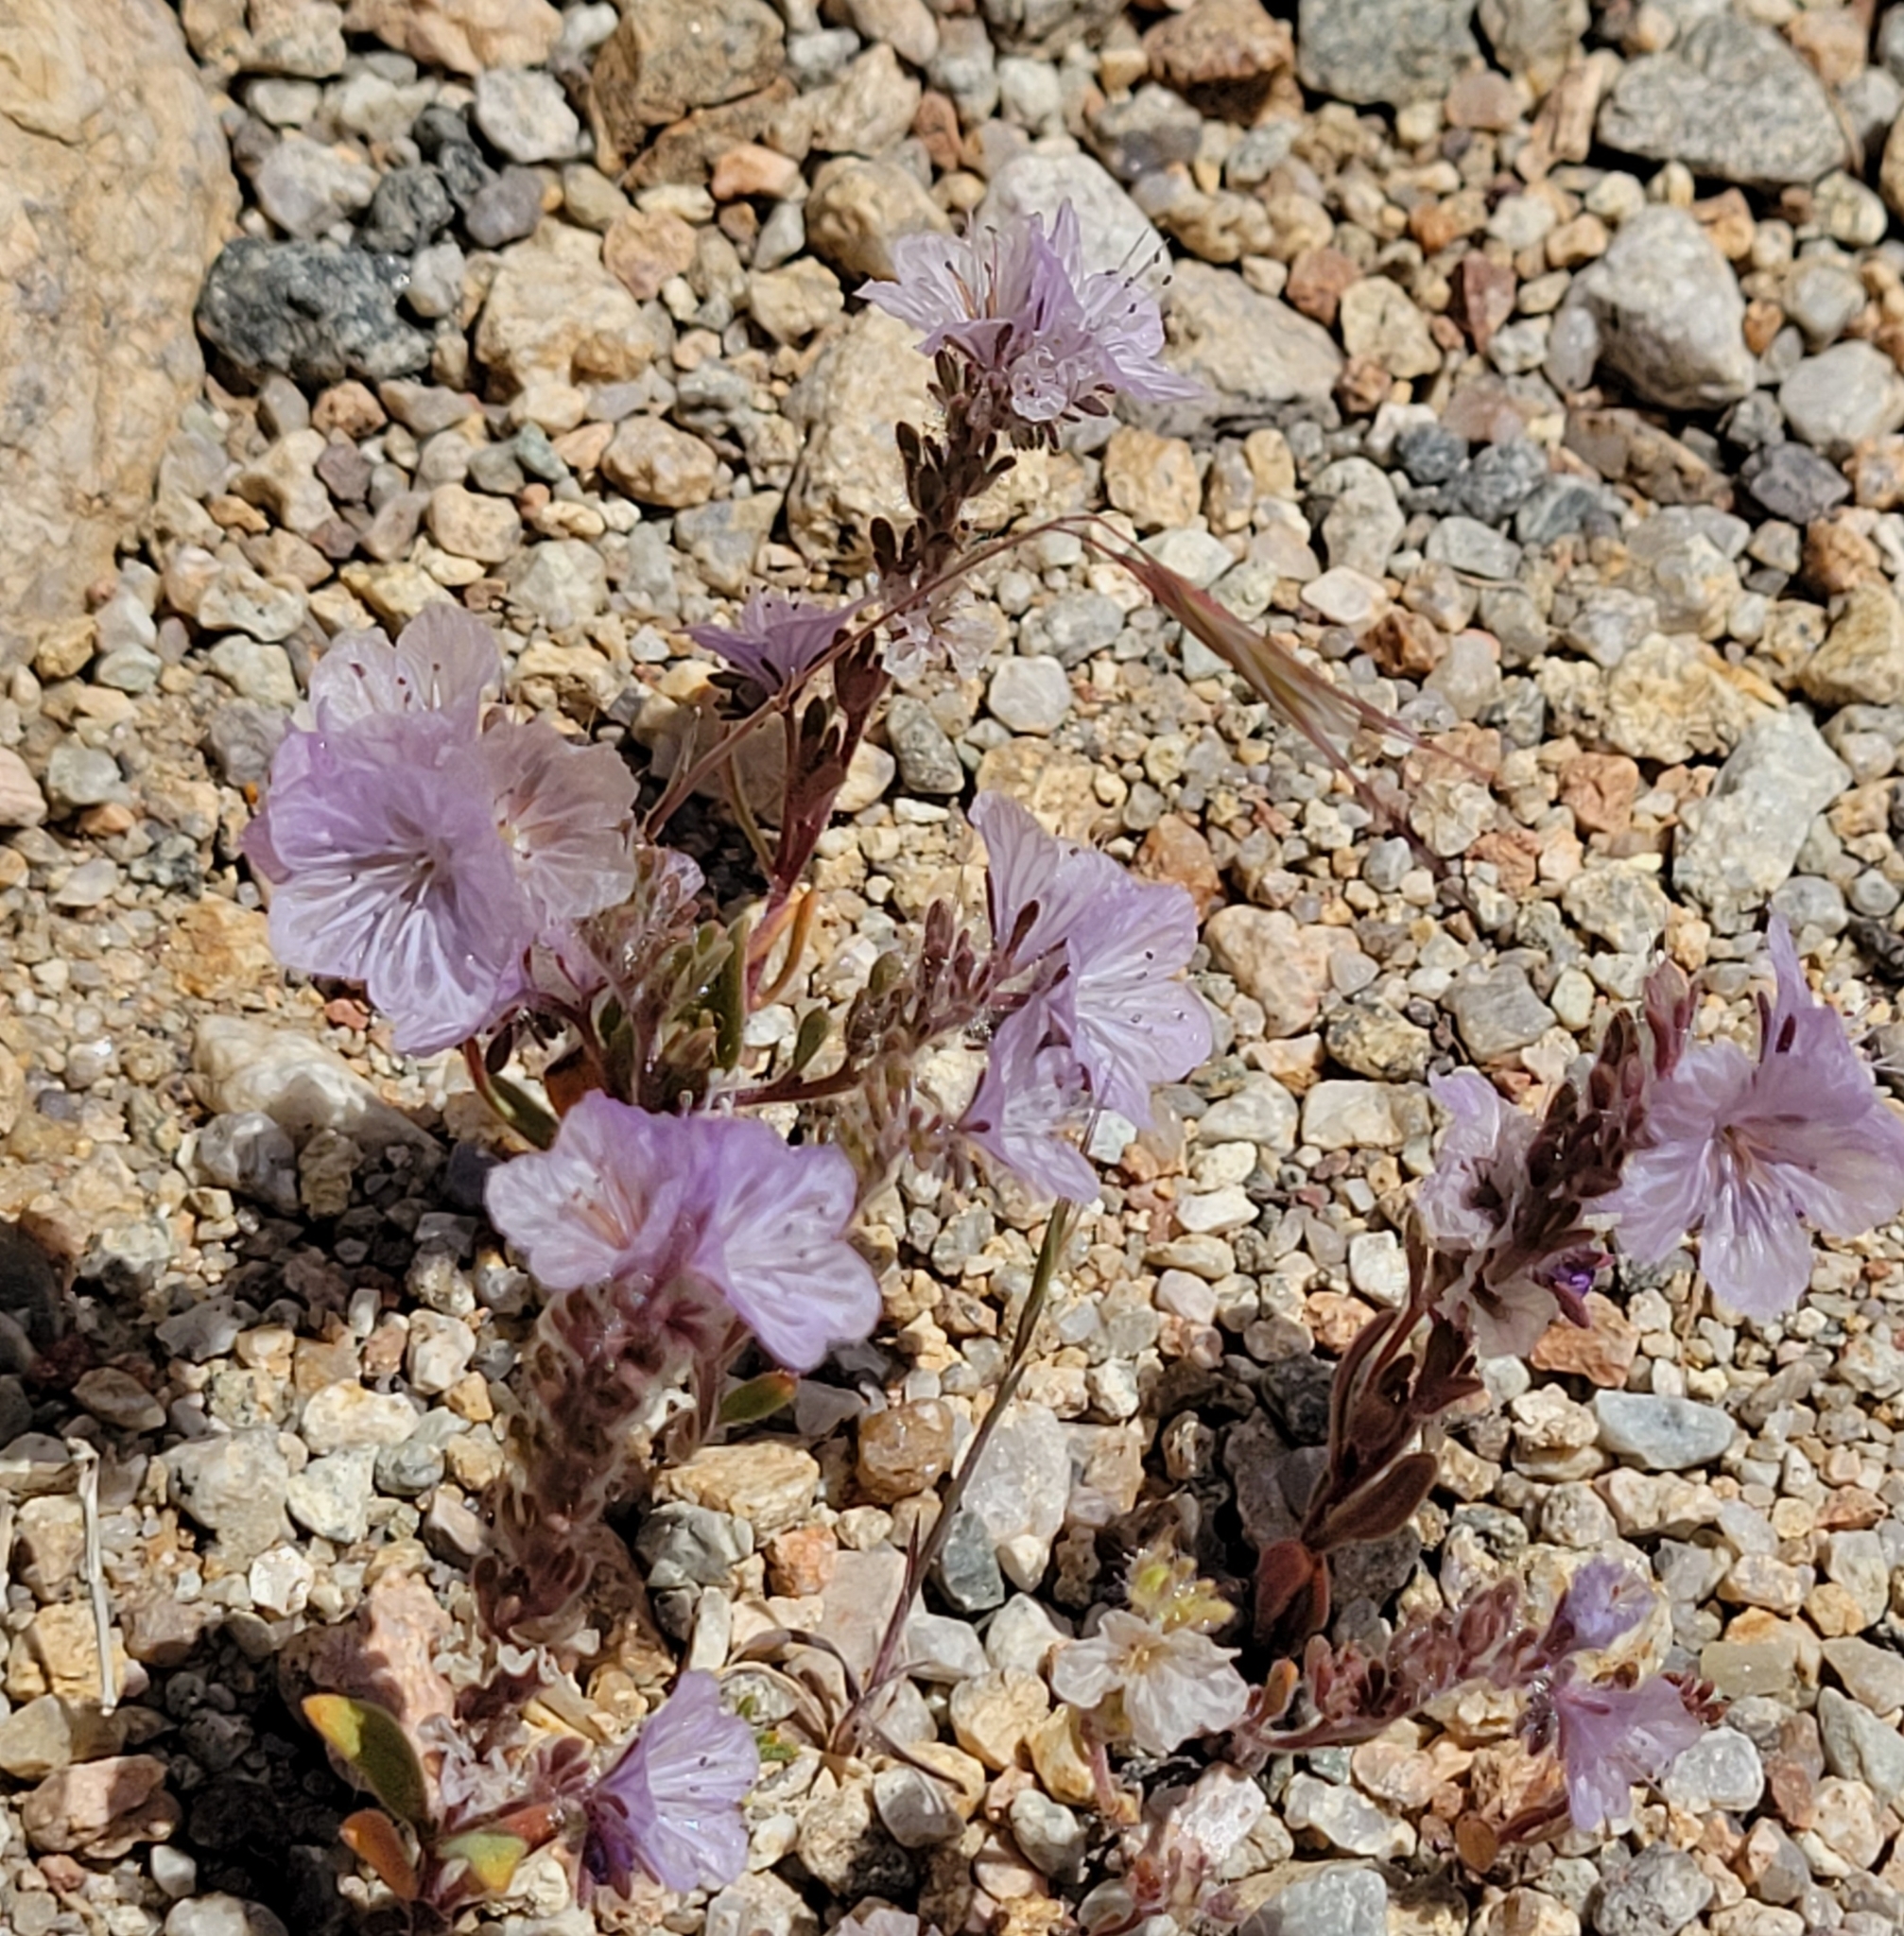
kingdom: Plantae
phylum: Tracheophyta
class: Magnoliopsida
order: Boraginales
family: Hydrophyllaceae
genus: Phacelia
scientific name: Phacelia exilis
